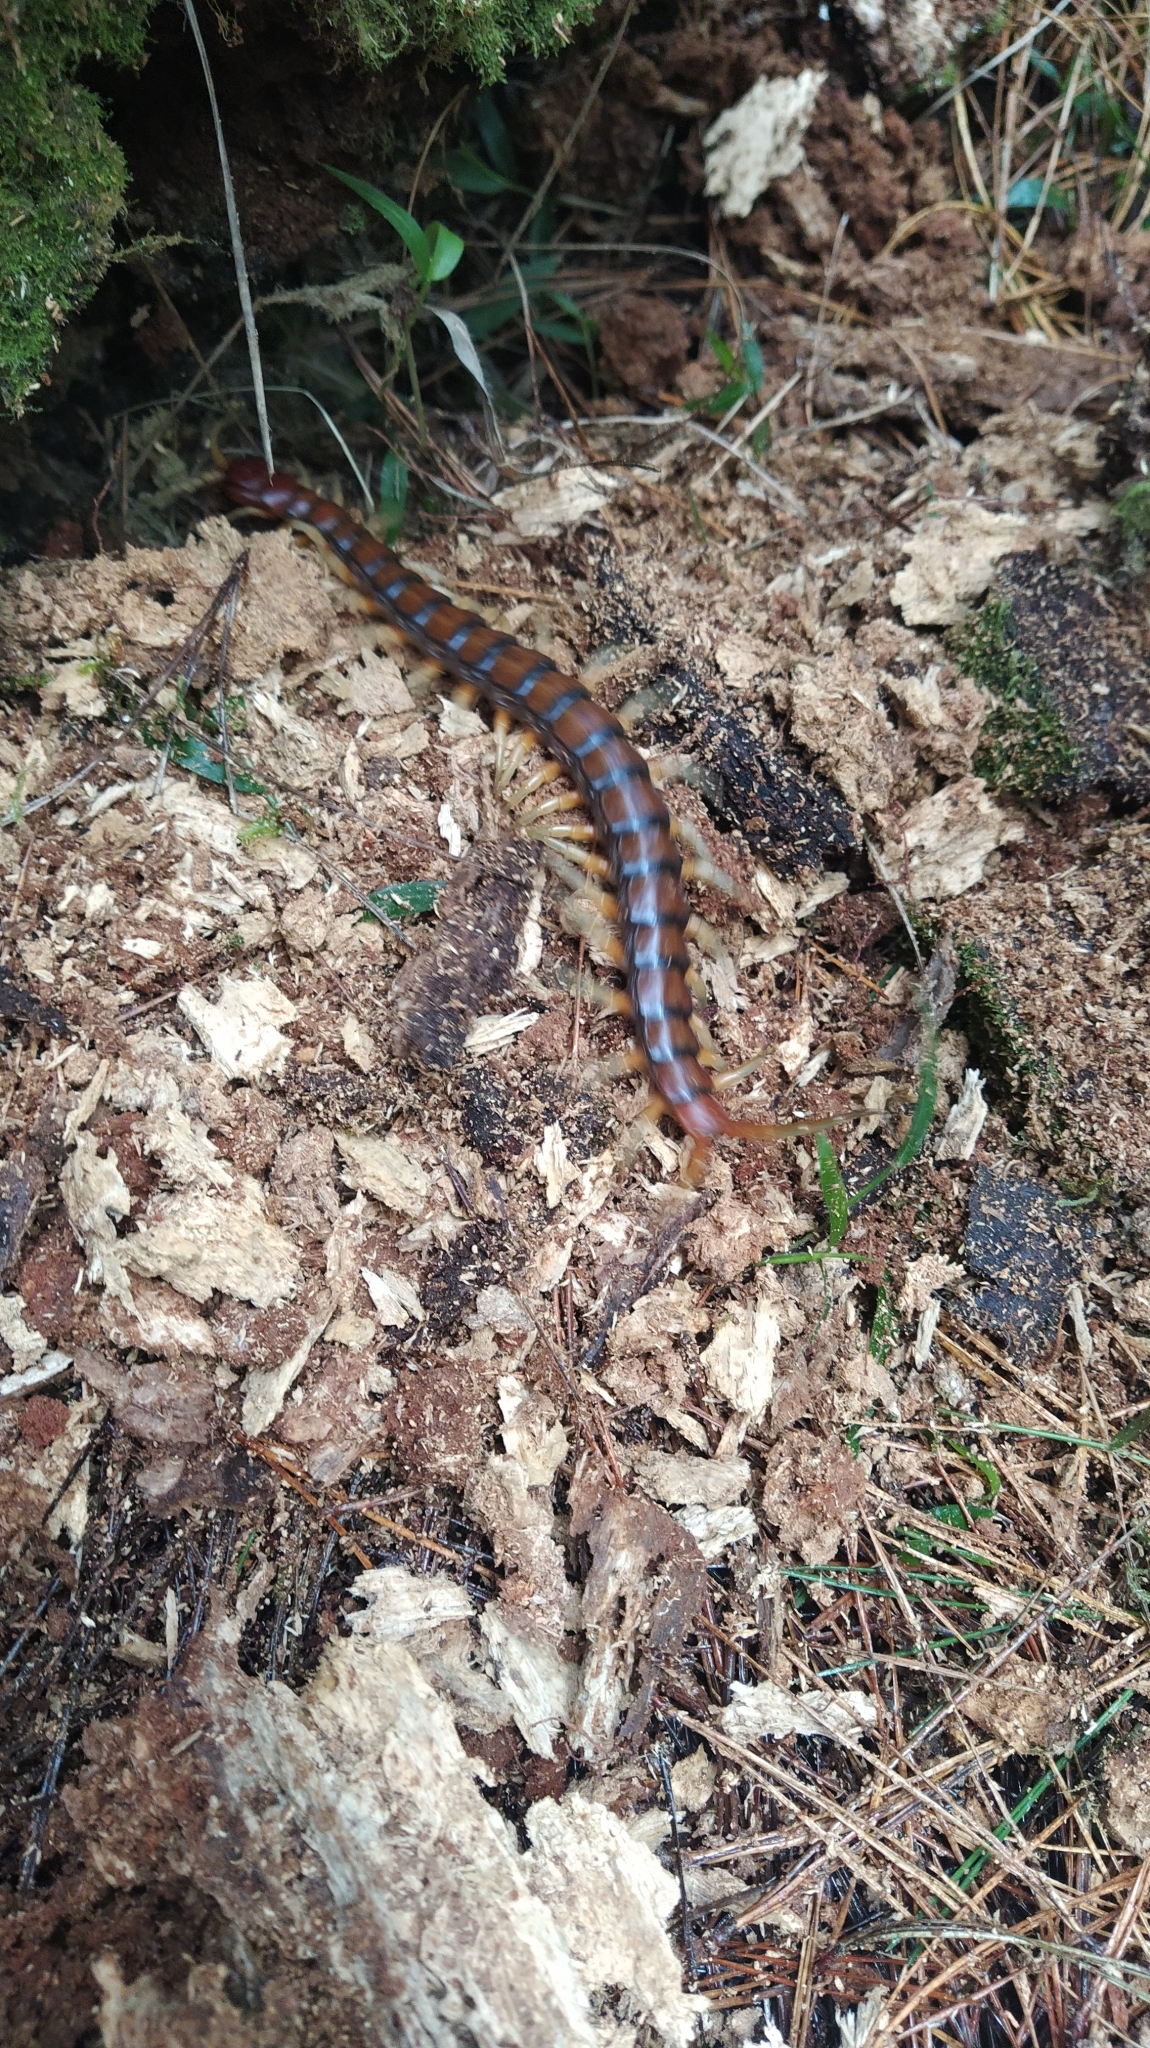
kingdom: Animalia
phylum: Arthropoda
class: Chilopoda
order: Scolopendromorpha
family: Scolopendridae
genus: Cormocephalus
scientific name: Cormocephalus rubriceps
